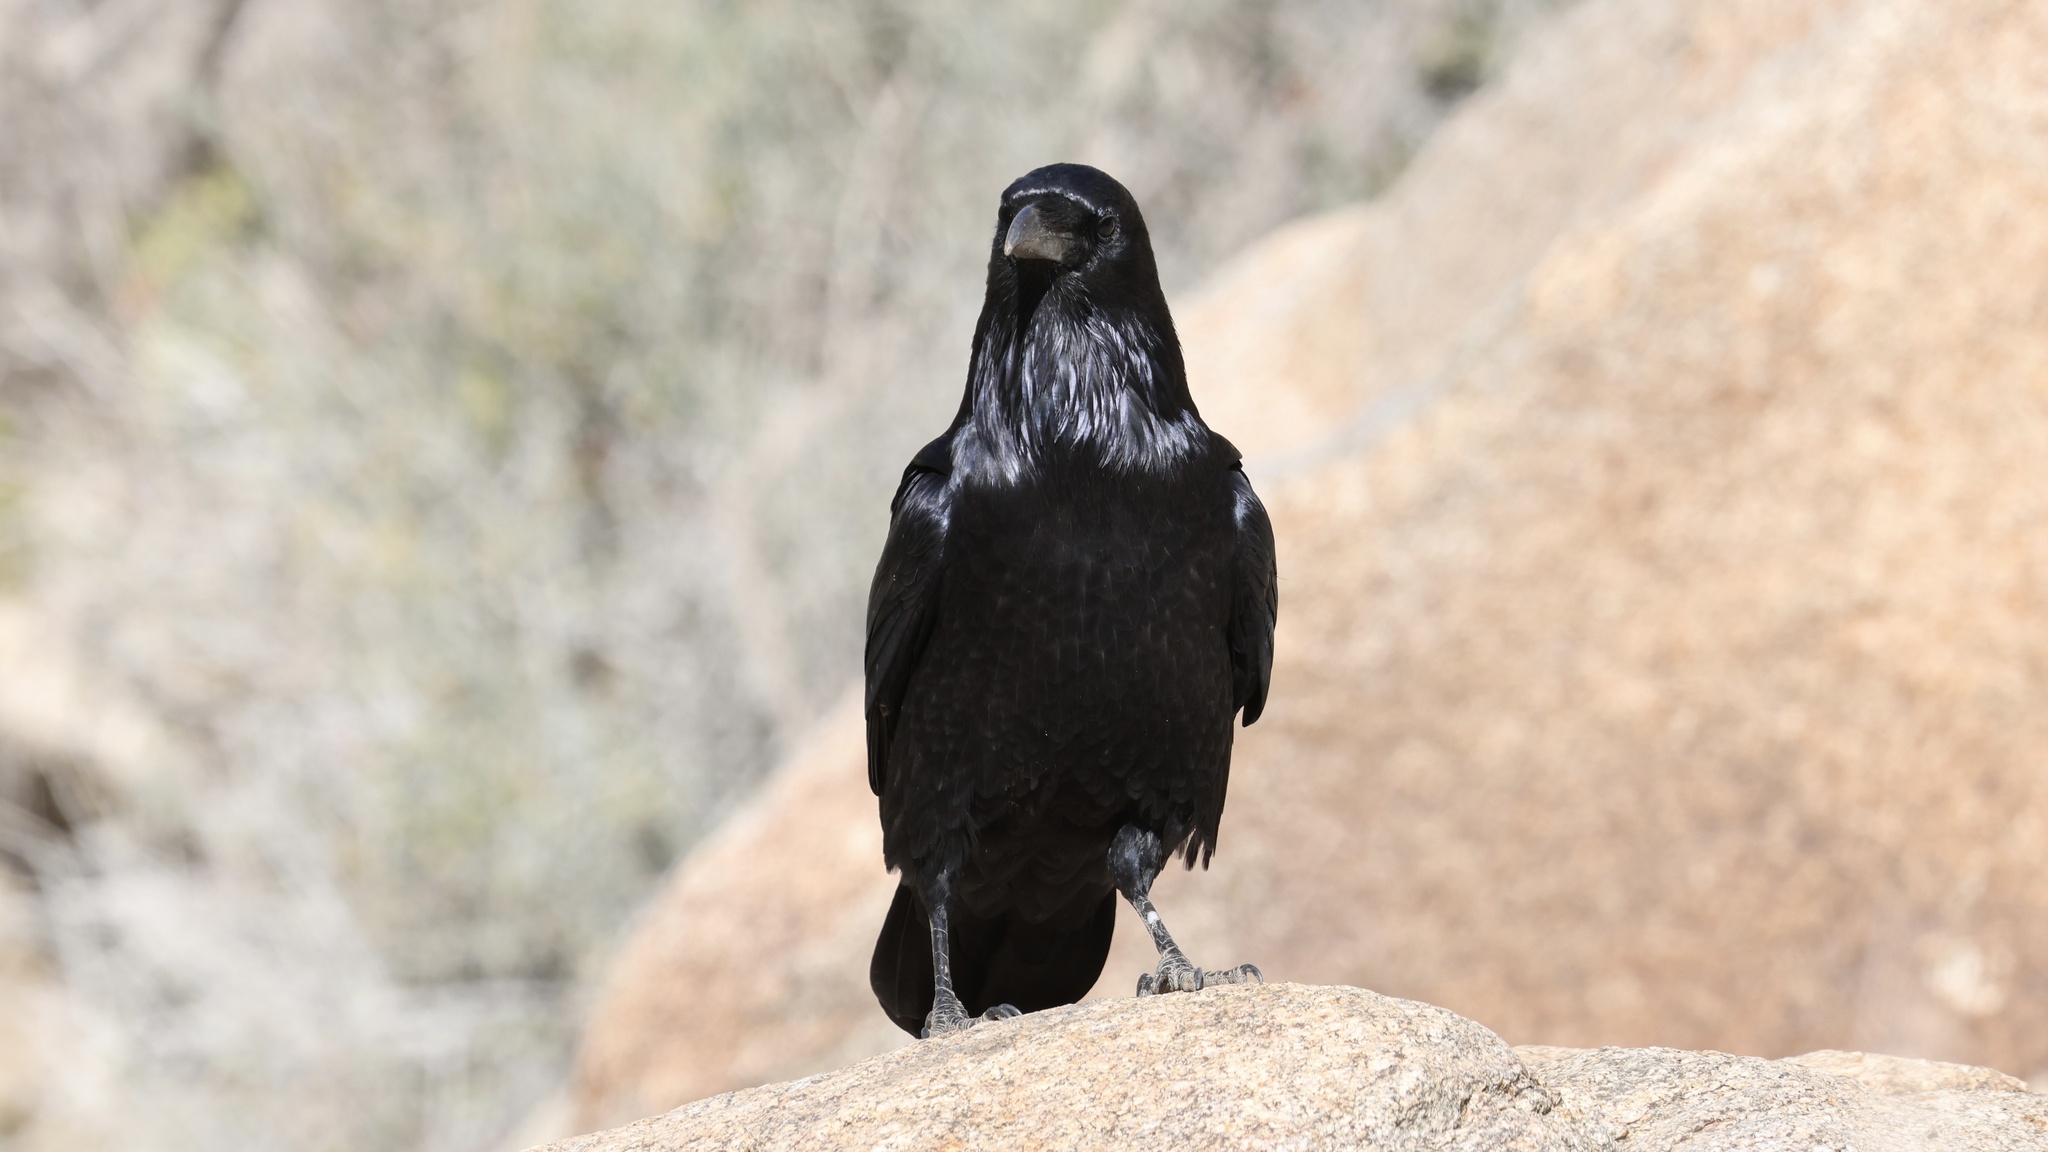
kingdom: Animalia
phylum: Chordata
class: Aves
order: Passeriformes
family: Corvidae
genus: Corvus
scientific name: Corvus corax
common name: Common raven
